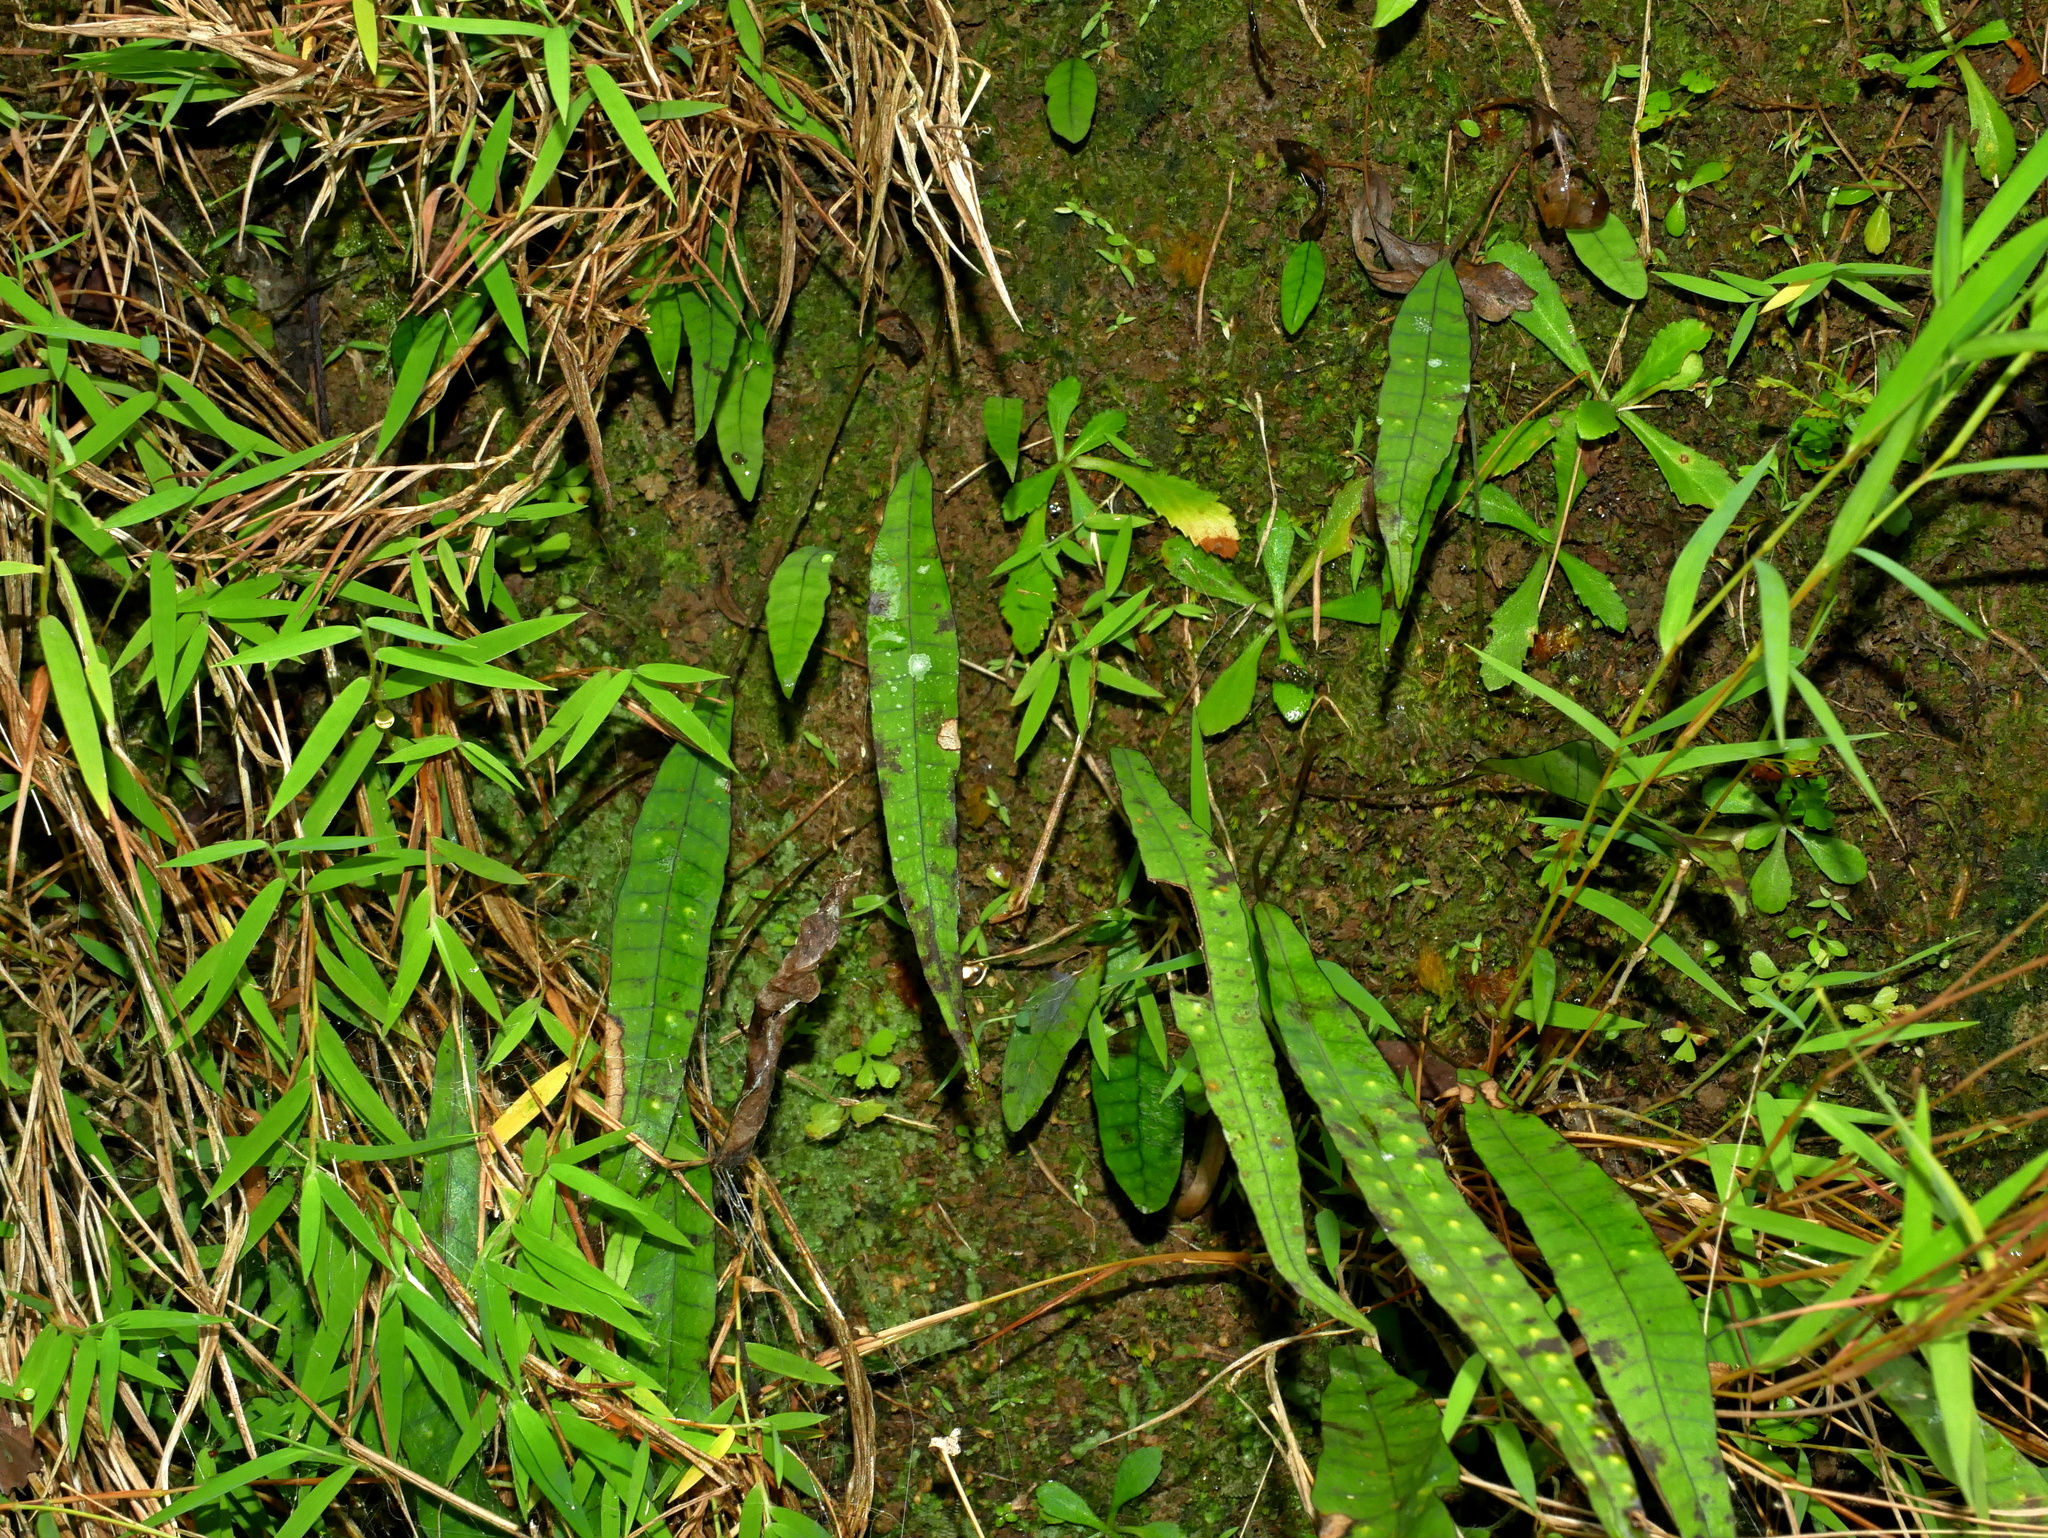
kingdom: Plantae
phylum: Tracheophyta
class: Polypodiopsida
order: Polypodiales
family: Polypodiaceae
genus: Selliguea
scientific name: Selliguea yakushimensis
